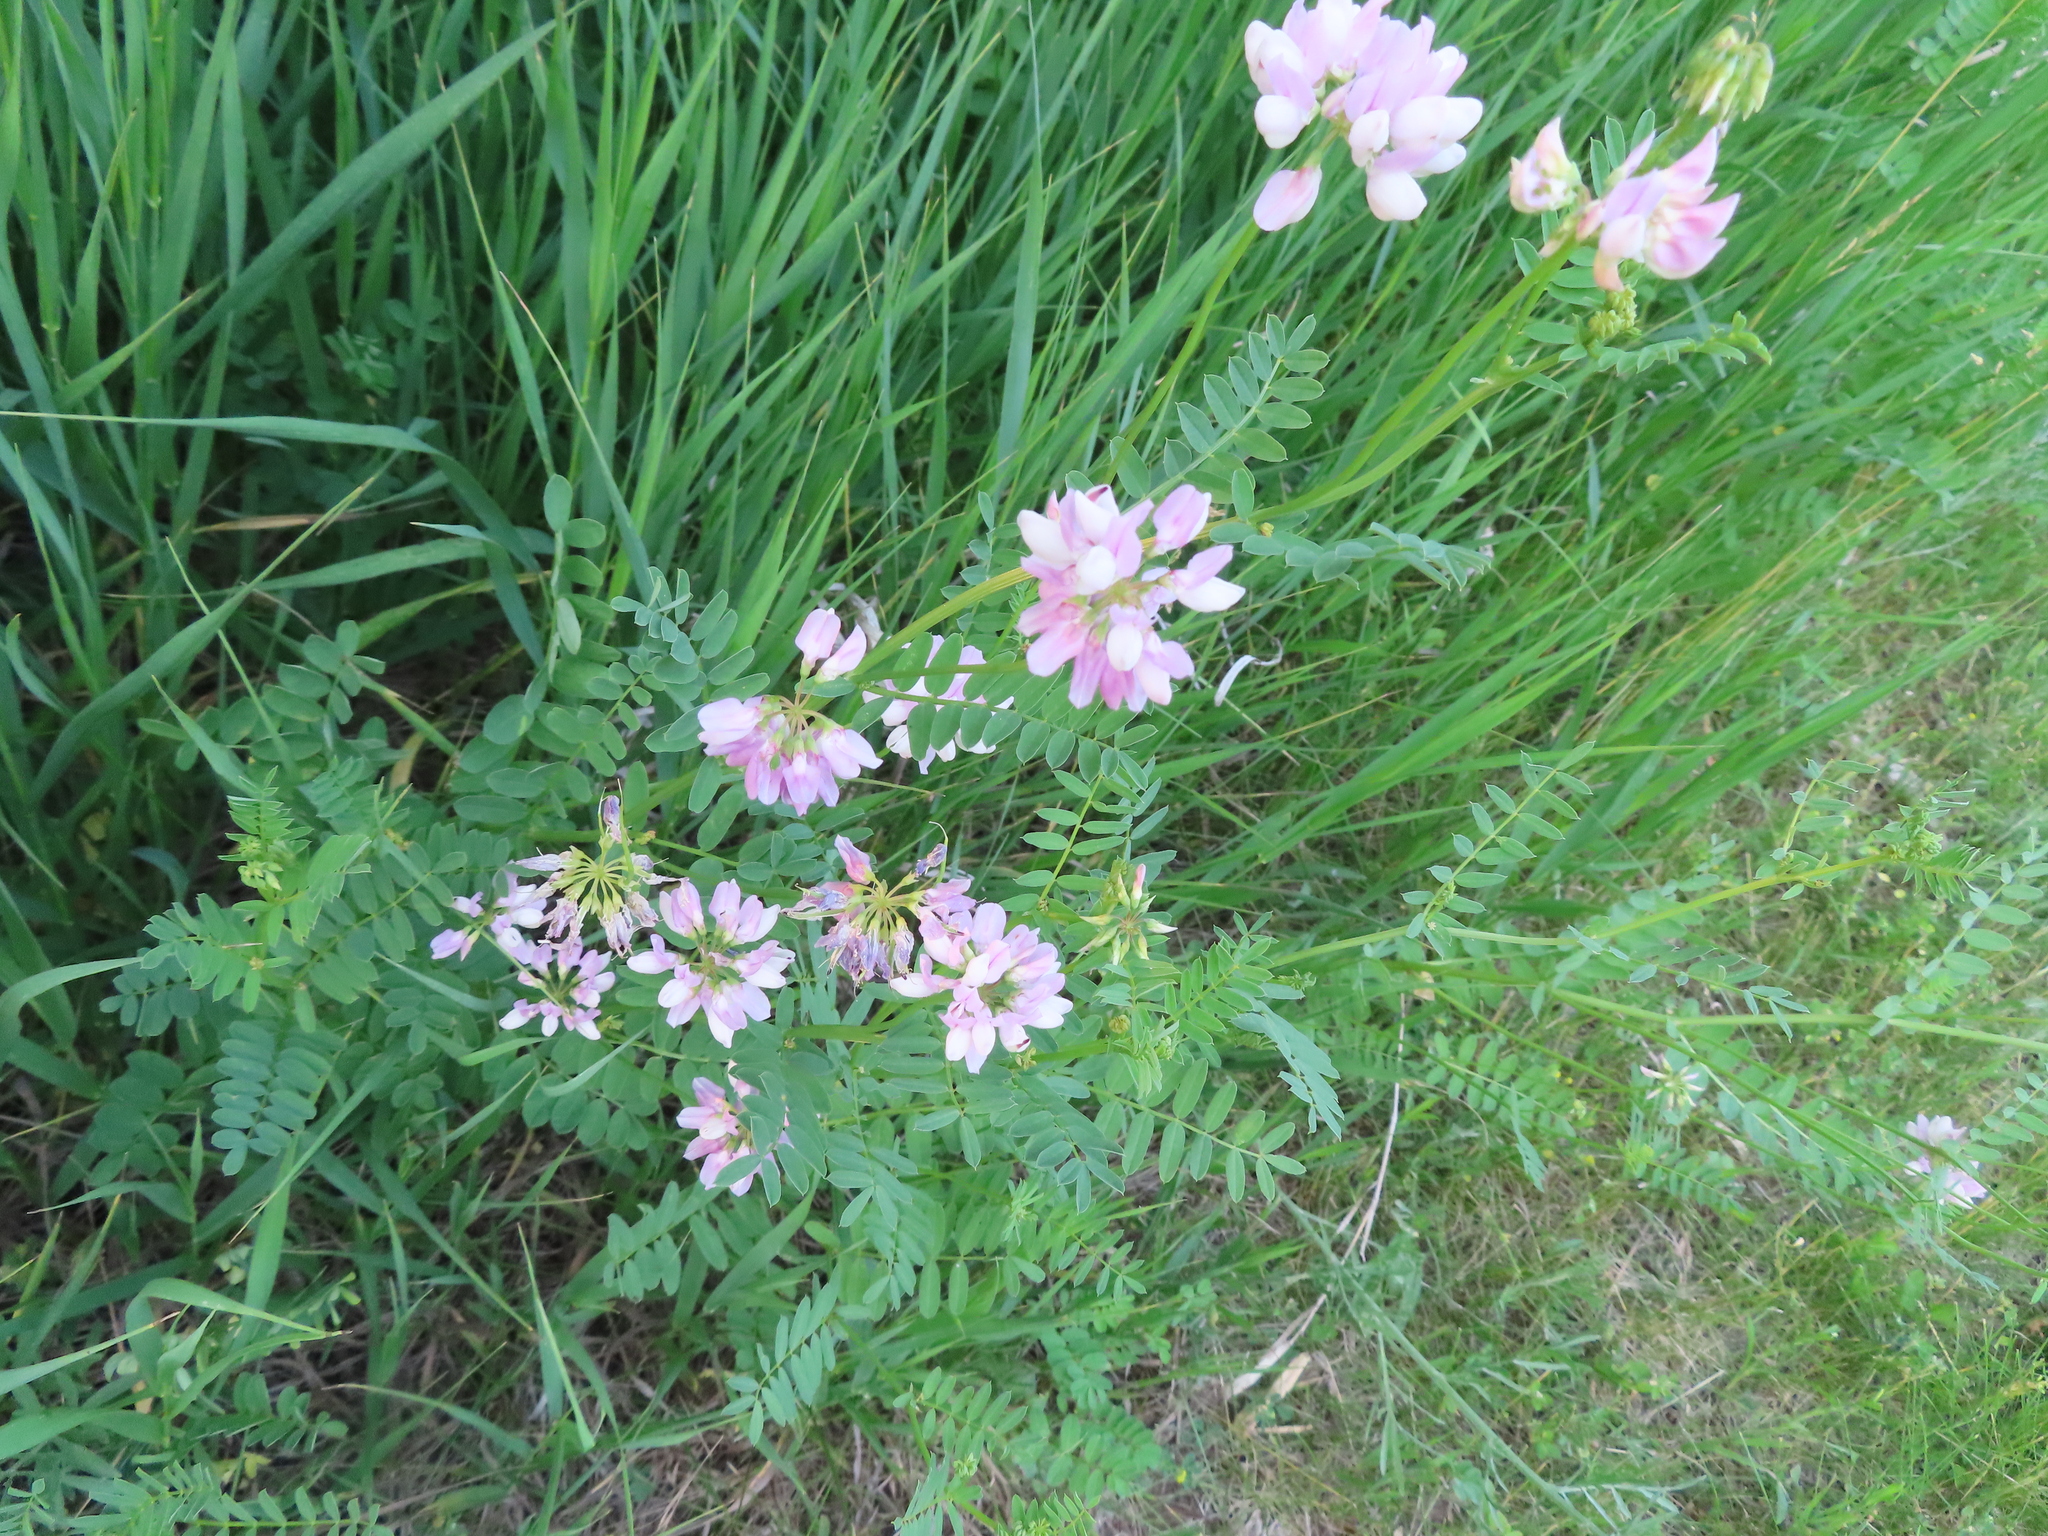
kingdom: Plantae
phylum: Tracheophyta
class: Magnoliopsida
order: Fabales
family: Fabaceae
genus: Coronilla
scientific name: Coronilla varia
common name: Crownvetch
